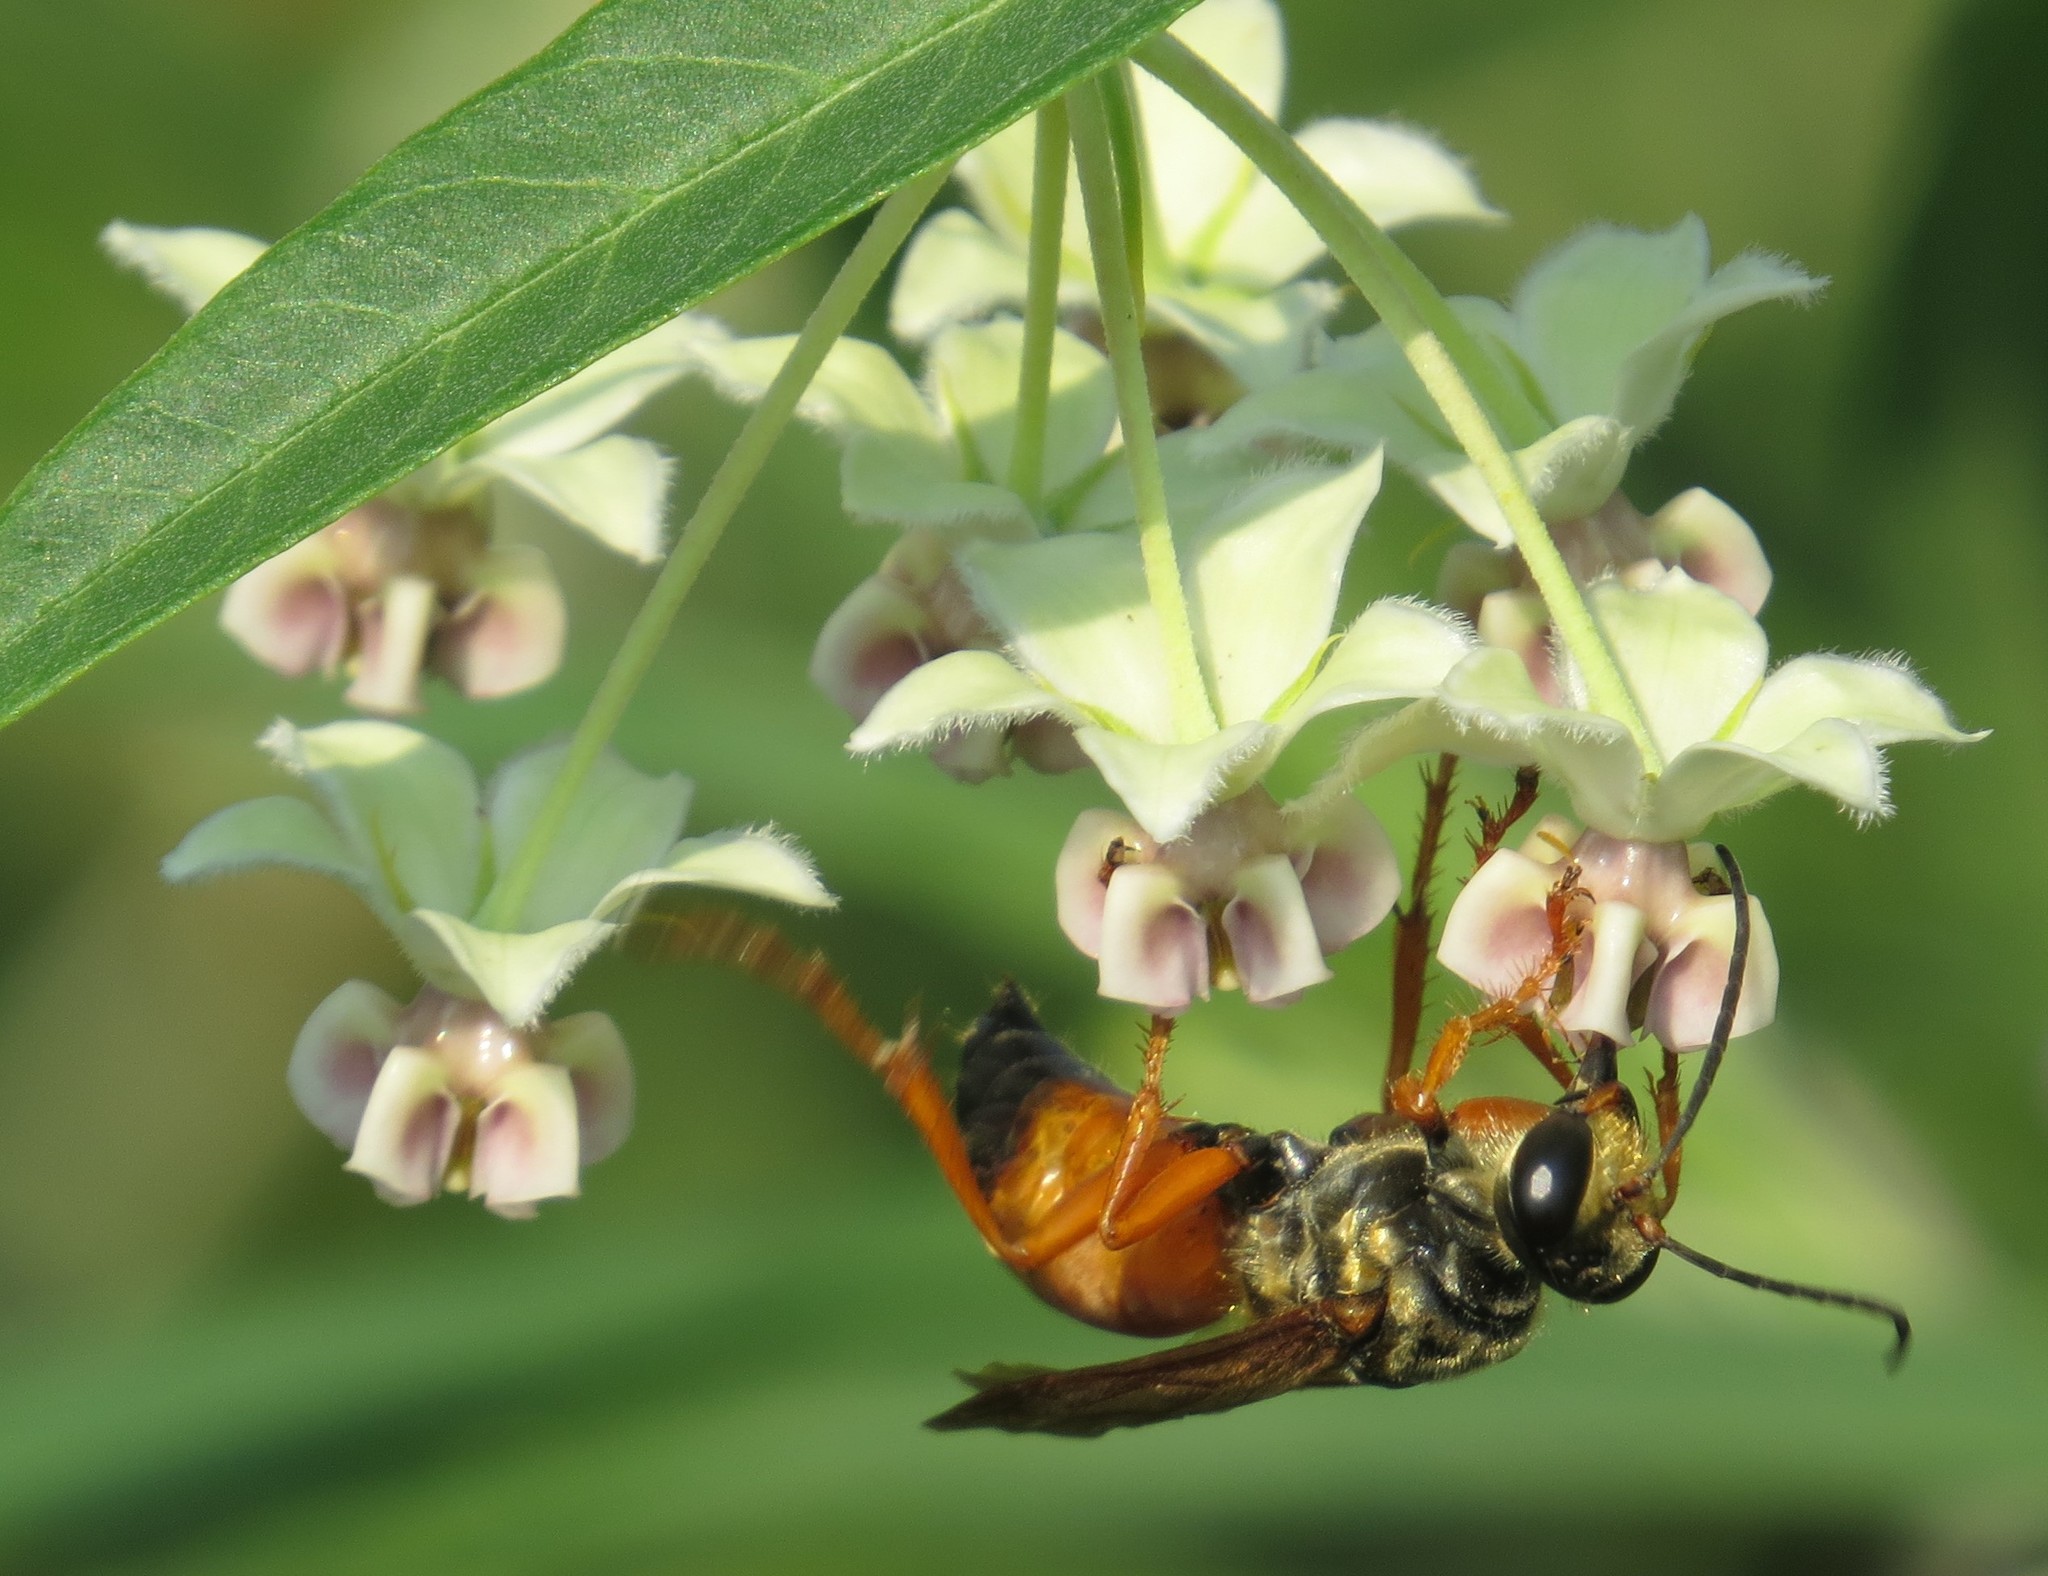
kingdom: Animalia
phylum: Arthropoda
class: Insecta
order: Hymenoptera
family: Sphecidae
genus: Sphex
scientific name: Sphex ichneumoneus
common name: Great golden digger wasp
